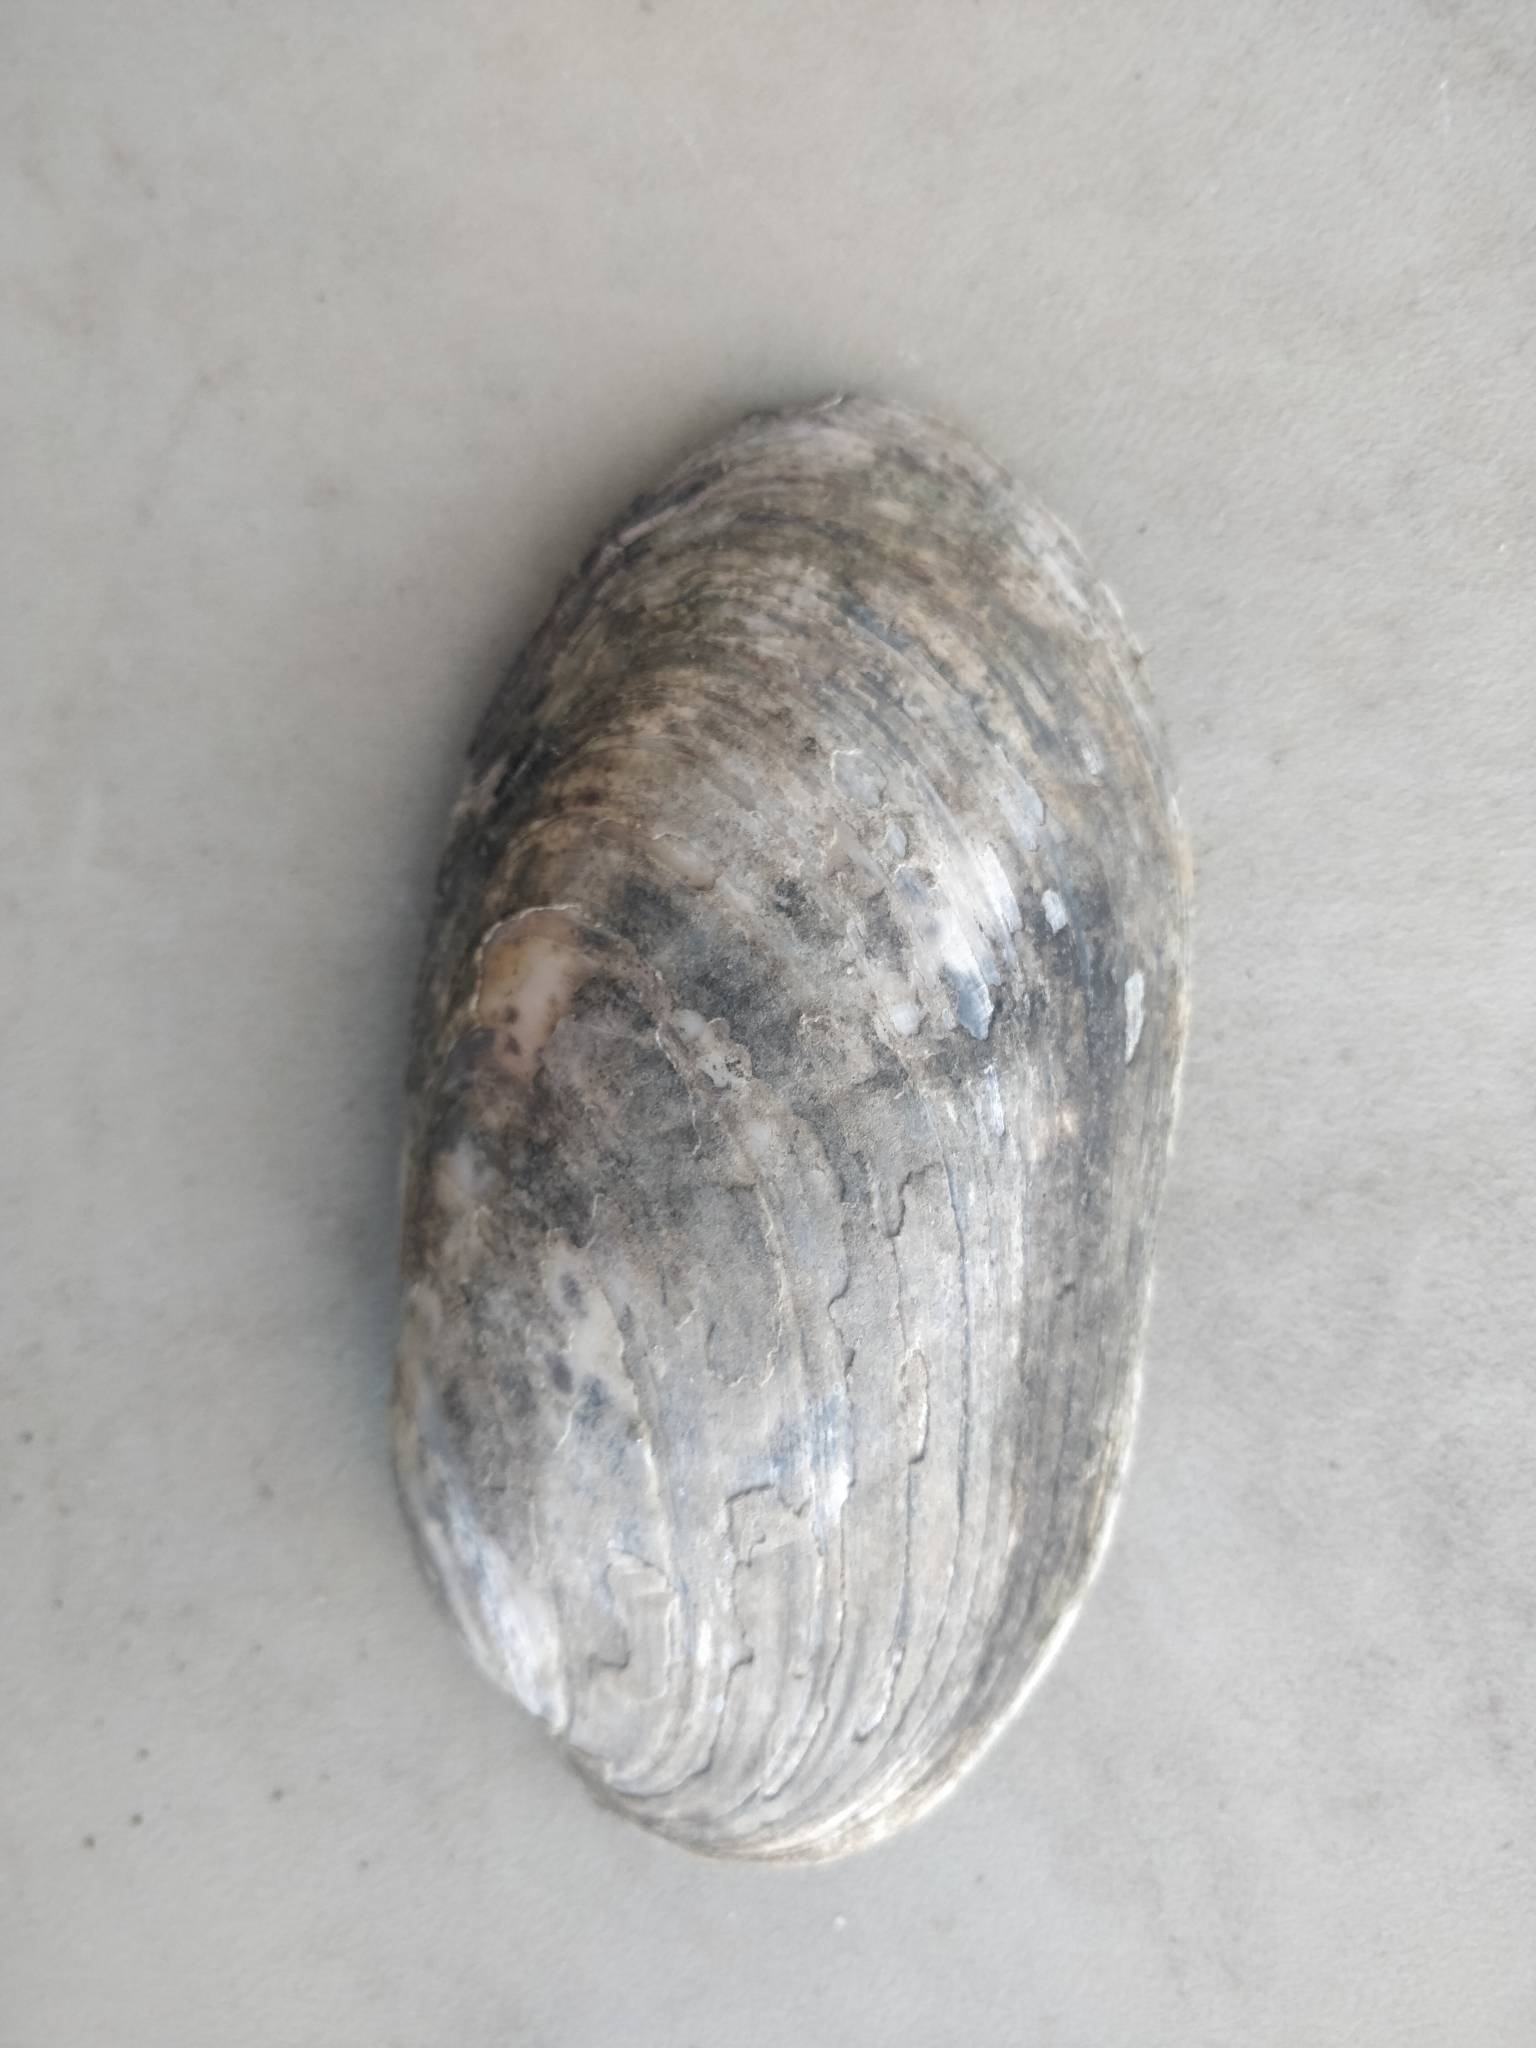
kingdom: Animalia
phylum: Mollusca
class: Bivalvia
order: Unionida
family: Unionidae
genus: Lampsilis
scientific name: Lampsilis siliquoidea
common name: Fatmucket
